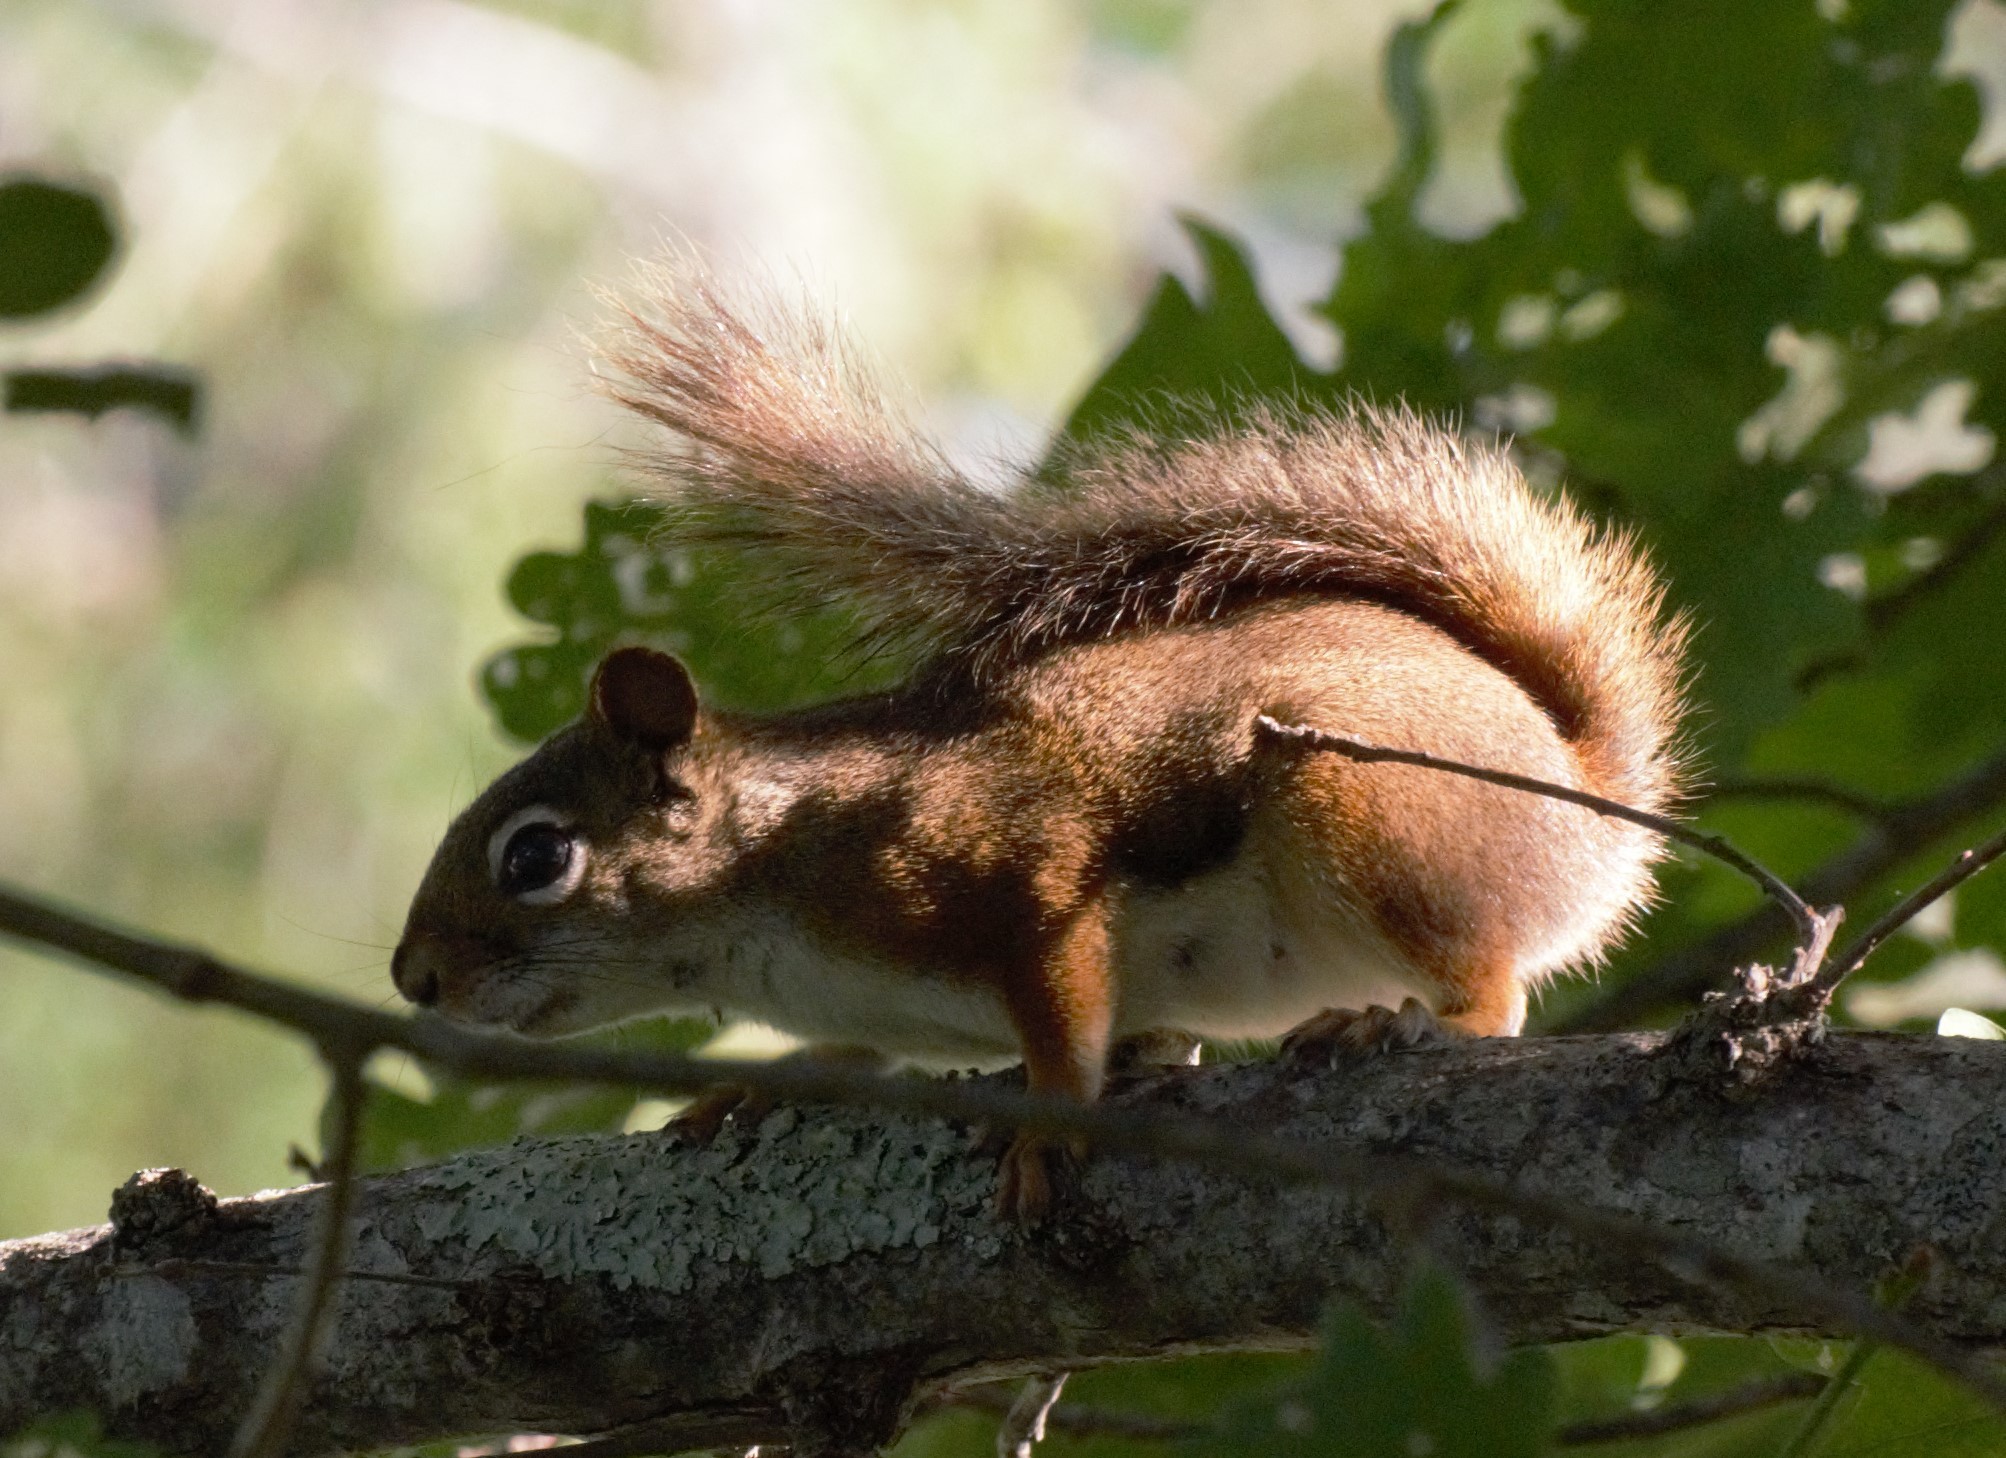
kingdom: Animalia
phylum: Chordata
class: Mammalia
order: Rodentia
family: Sciuridae
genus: Tamiasciurus
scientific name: Tamiasciurus hudsonicus
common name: Red squirrel
